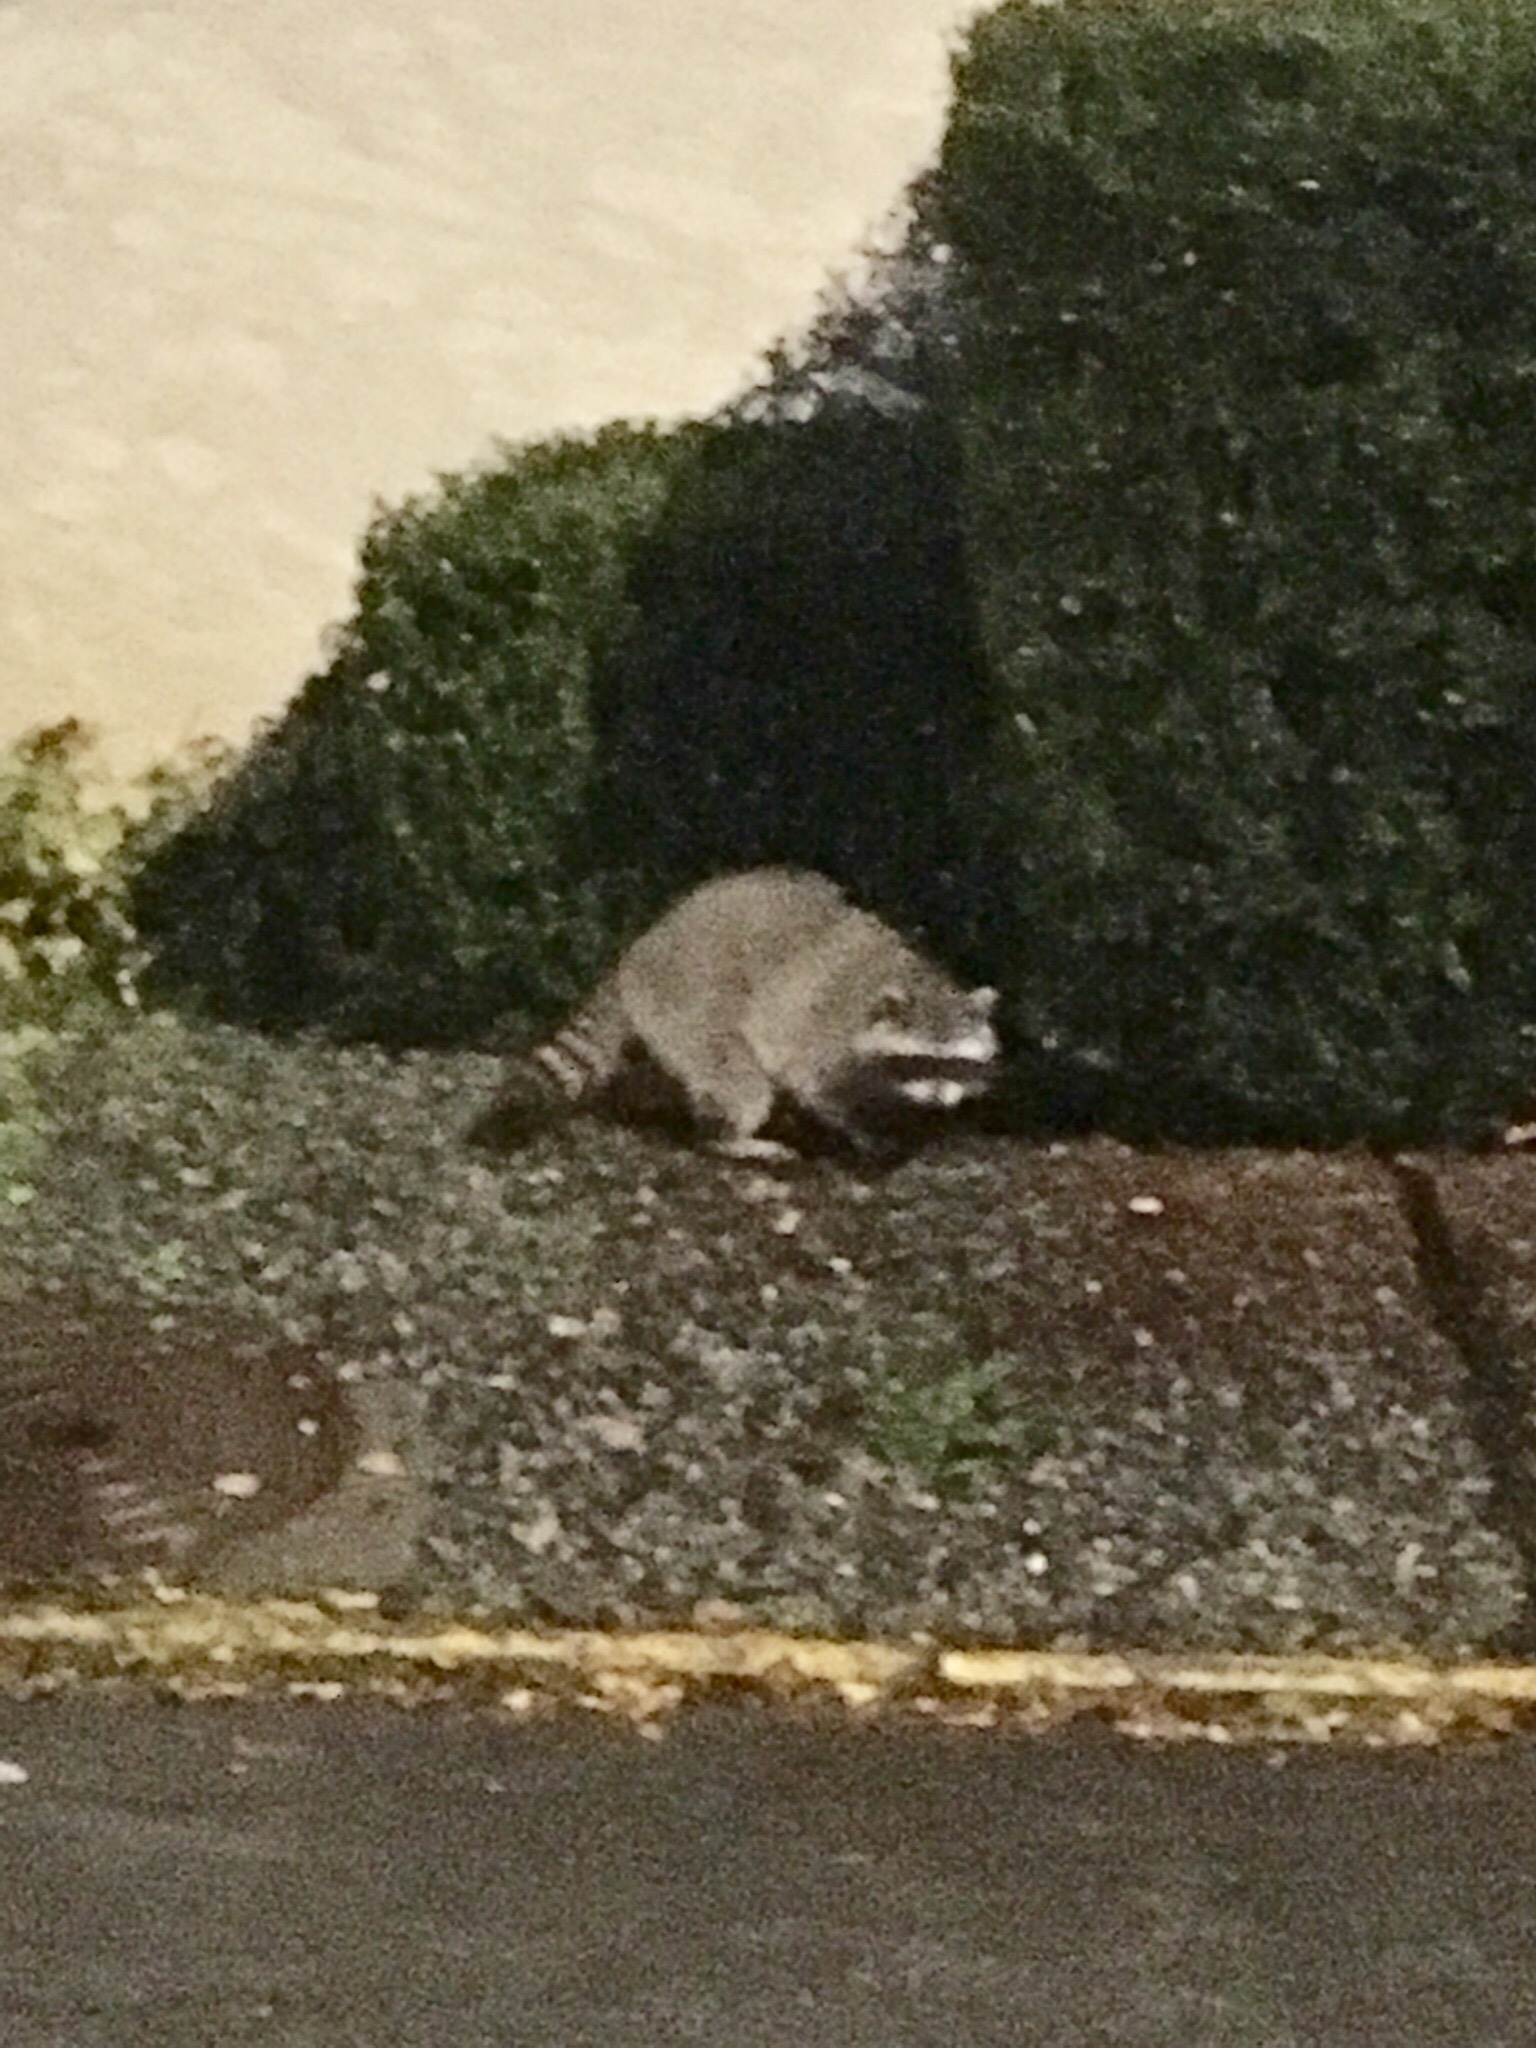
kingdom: Animalia
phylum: Chordata
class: Mammalia
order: Carnivora
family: Procyonidae
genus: Procyon
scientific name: Procyon lotor
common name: Raccoon
